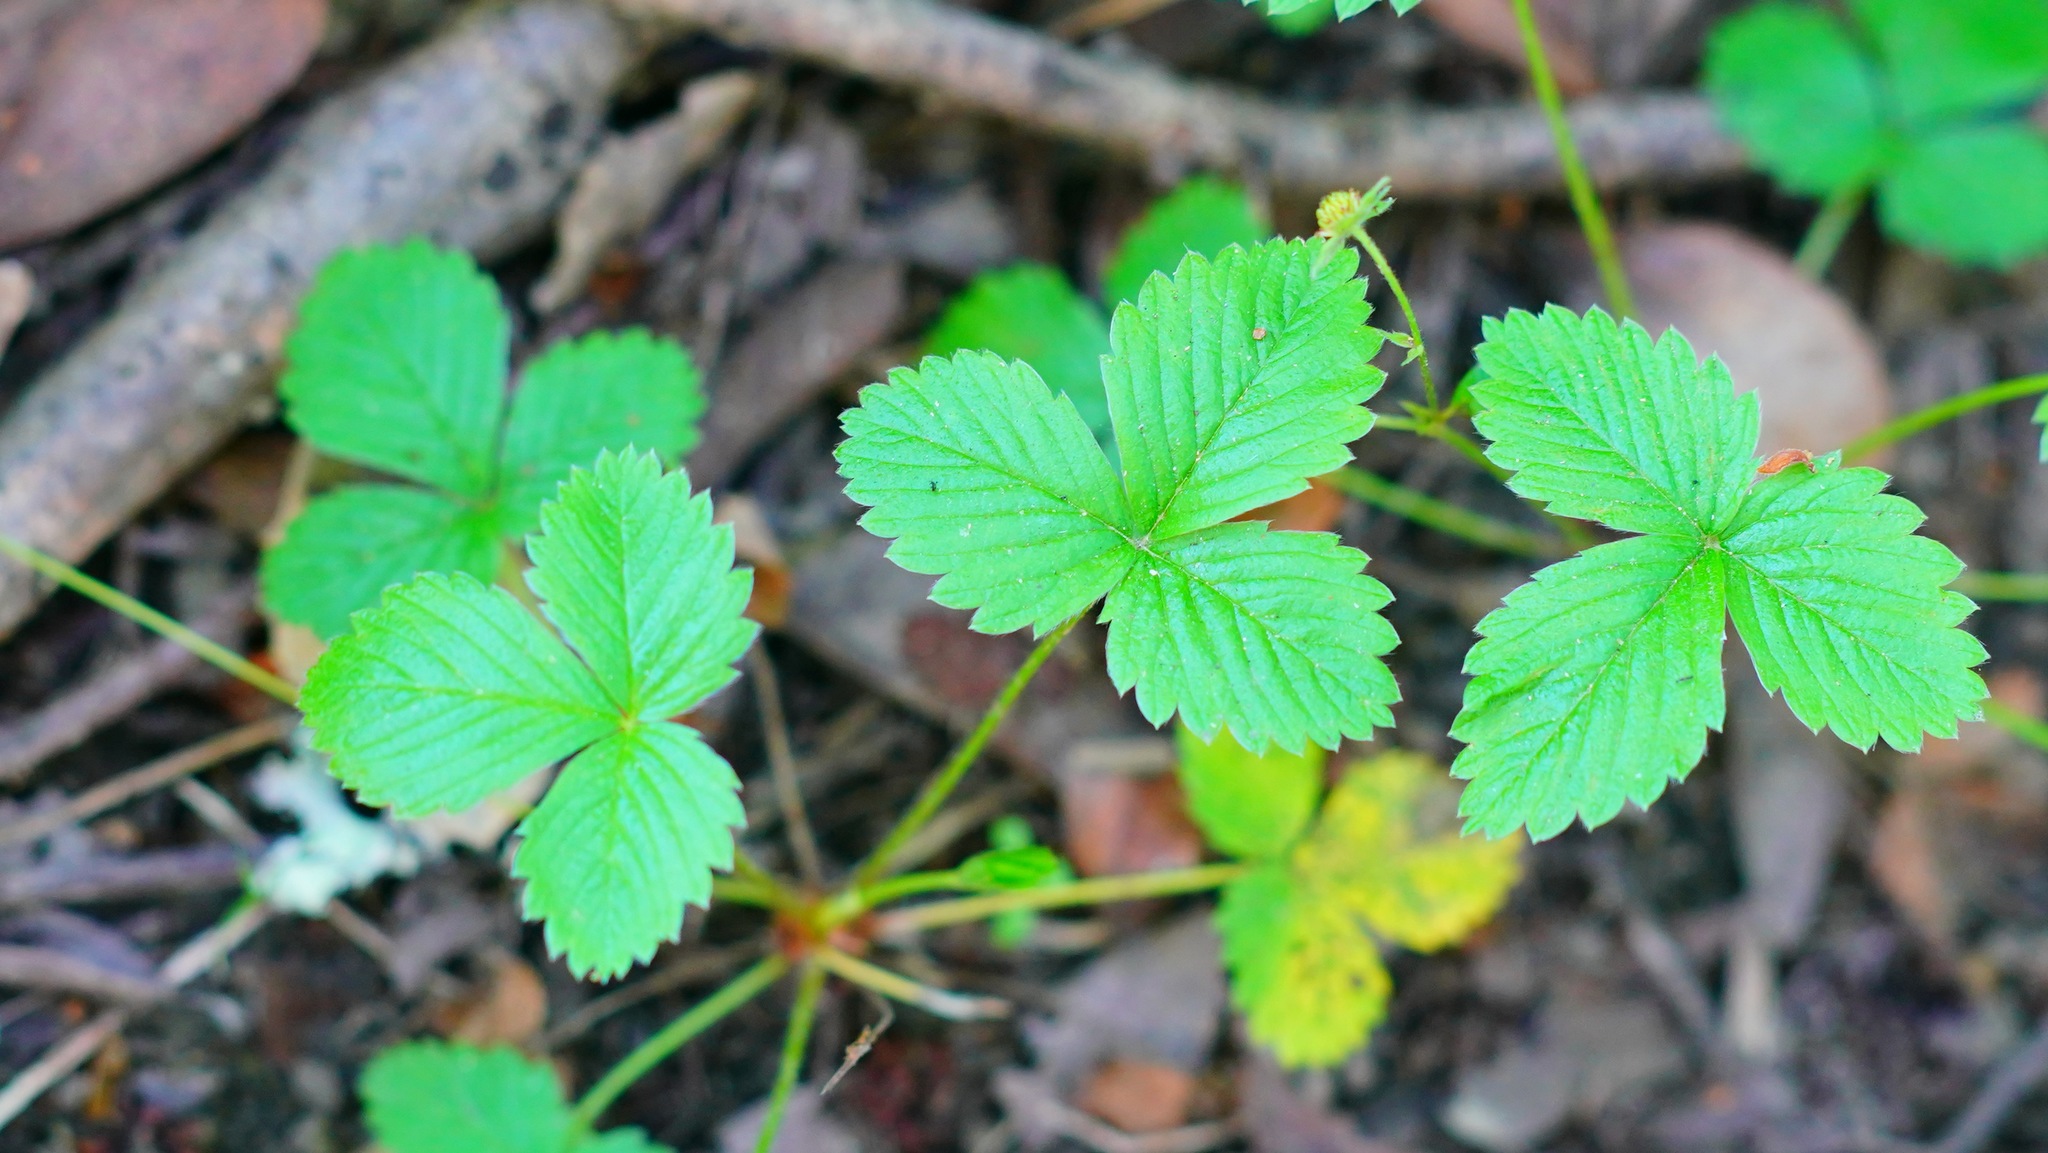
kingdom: Plantae
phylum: Tracheophyta
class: Magnoliopsida
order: Rosales
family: Rosaceae
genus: Fragaria
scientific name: Fragaria vesca
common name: Wild strawberry
